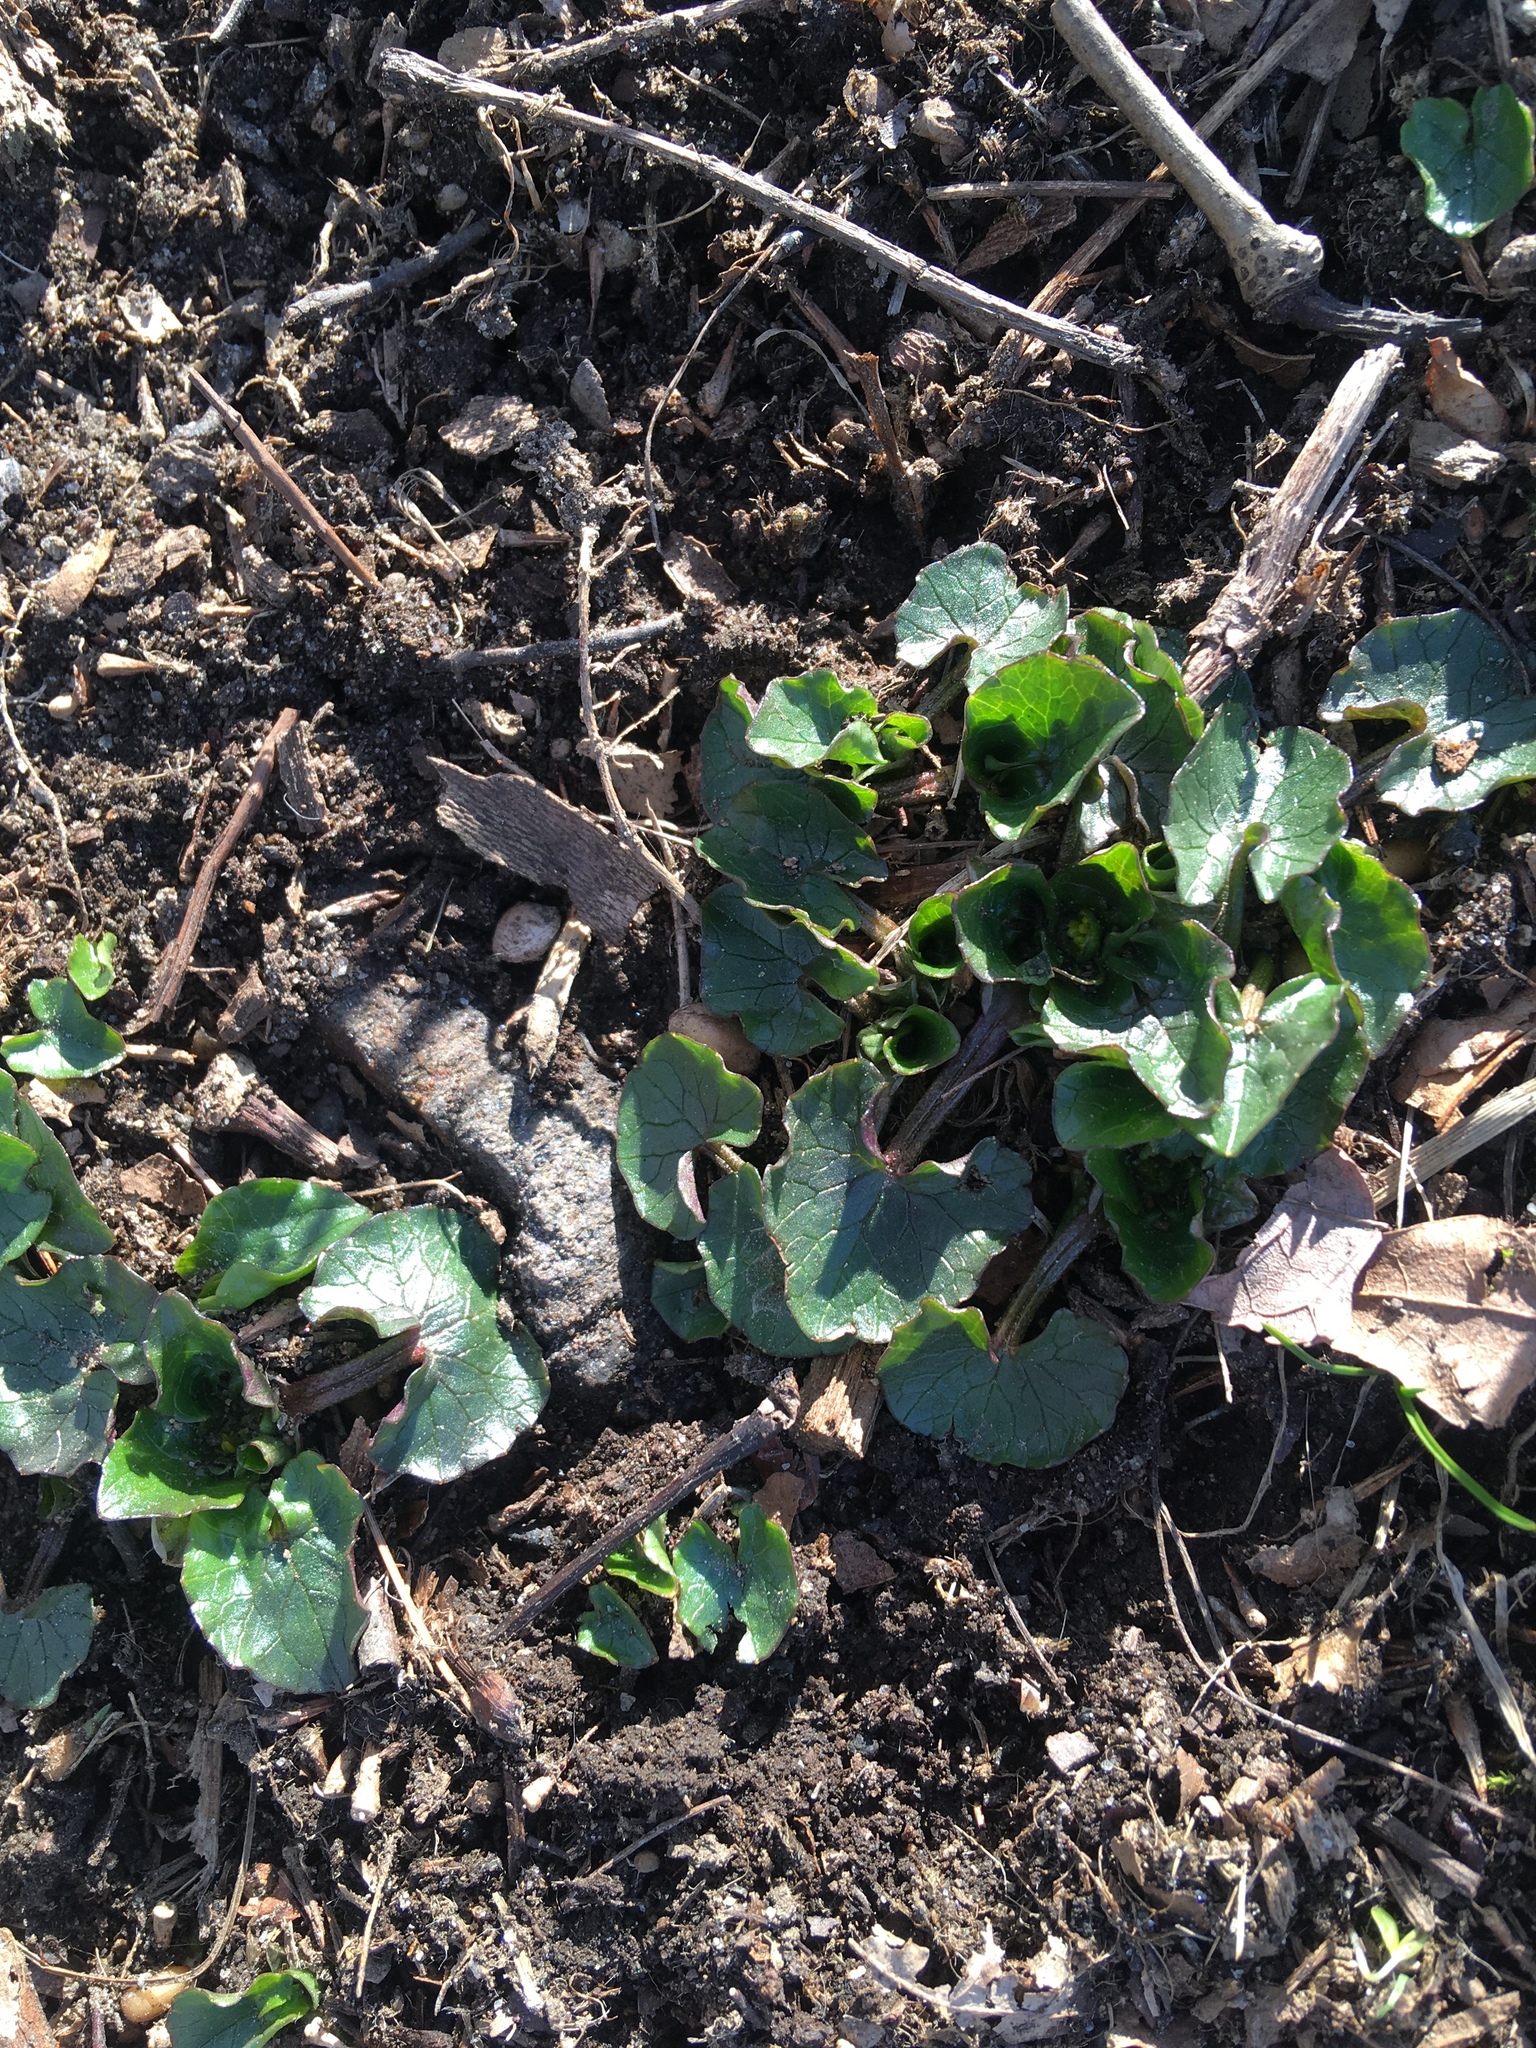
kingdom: Plantae
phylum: Tracheophyta
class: Magnoliopsida
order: Ranunculales
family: Ranunculaceae
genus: Ficaria
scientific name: Ficaria verna
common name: Lesser celandine
